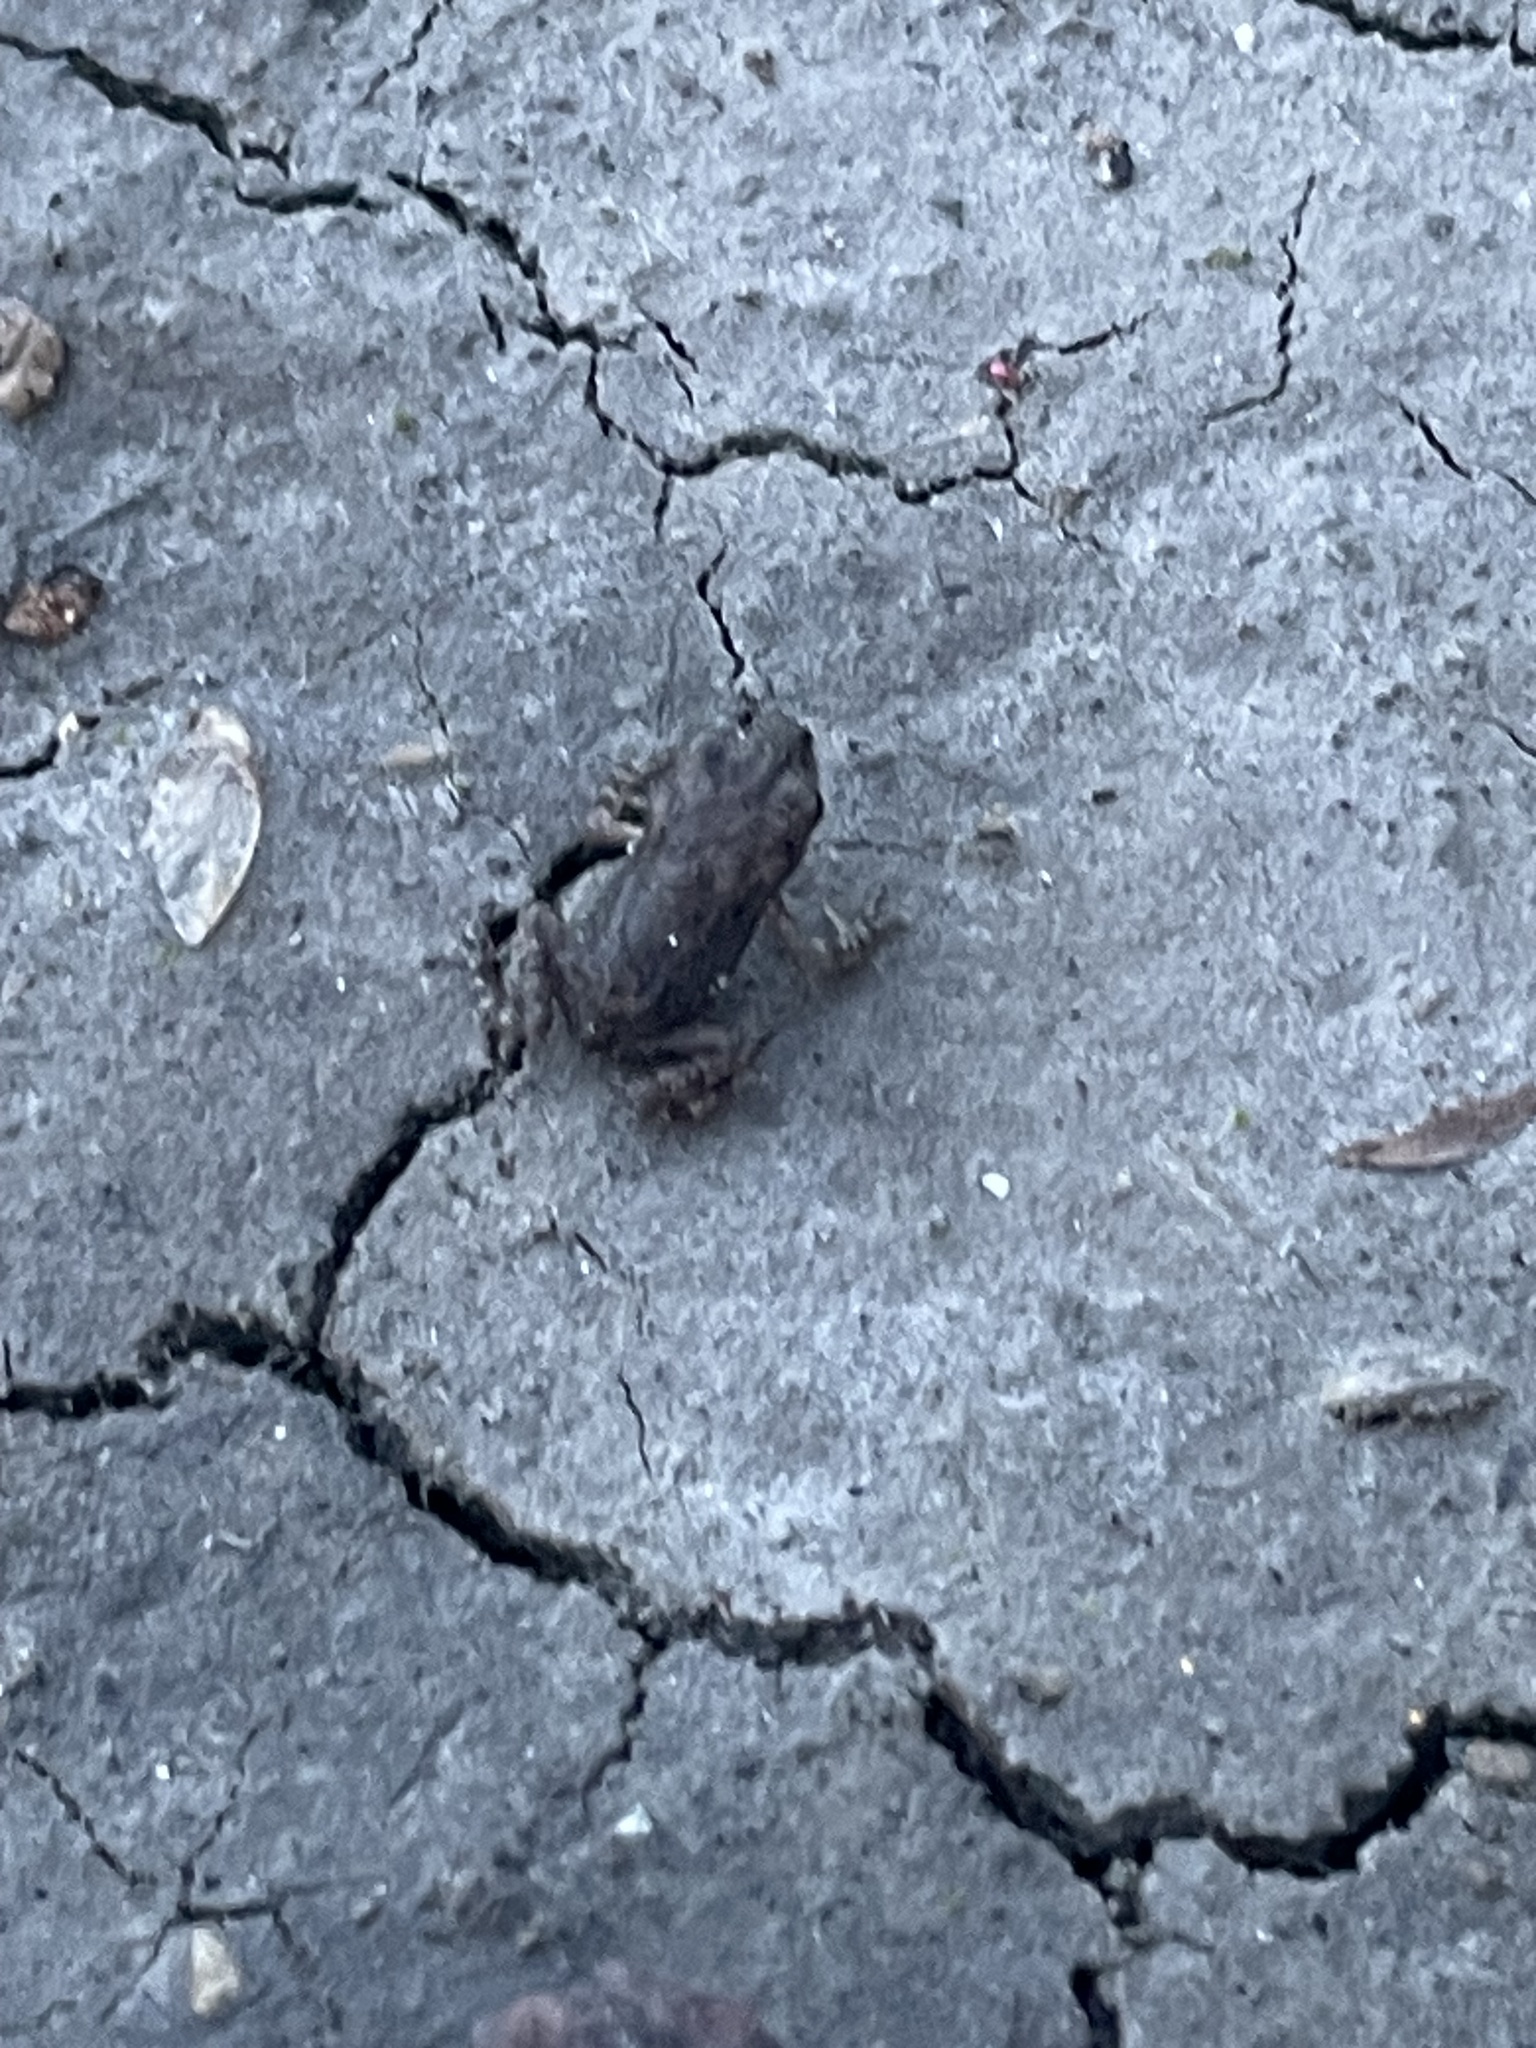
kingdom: Animalia
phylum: Chordata
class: Amphibia
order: Anura
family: Bufonidae
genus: Anaxyrus
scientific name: Anaxyrus fowleri
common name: Fowler's toad
